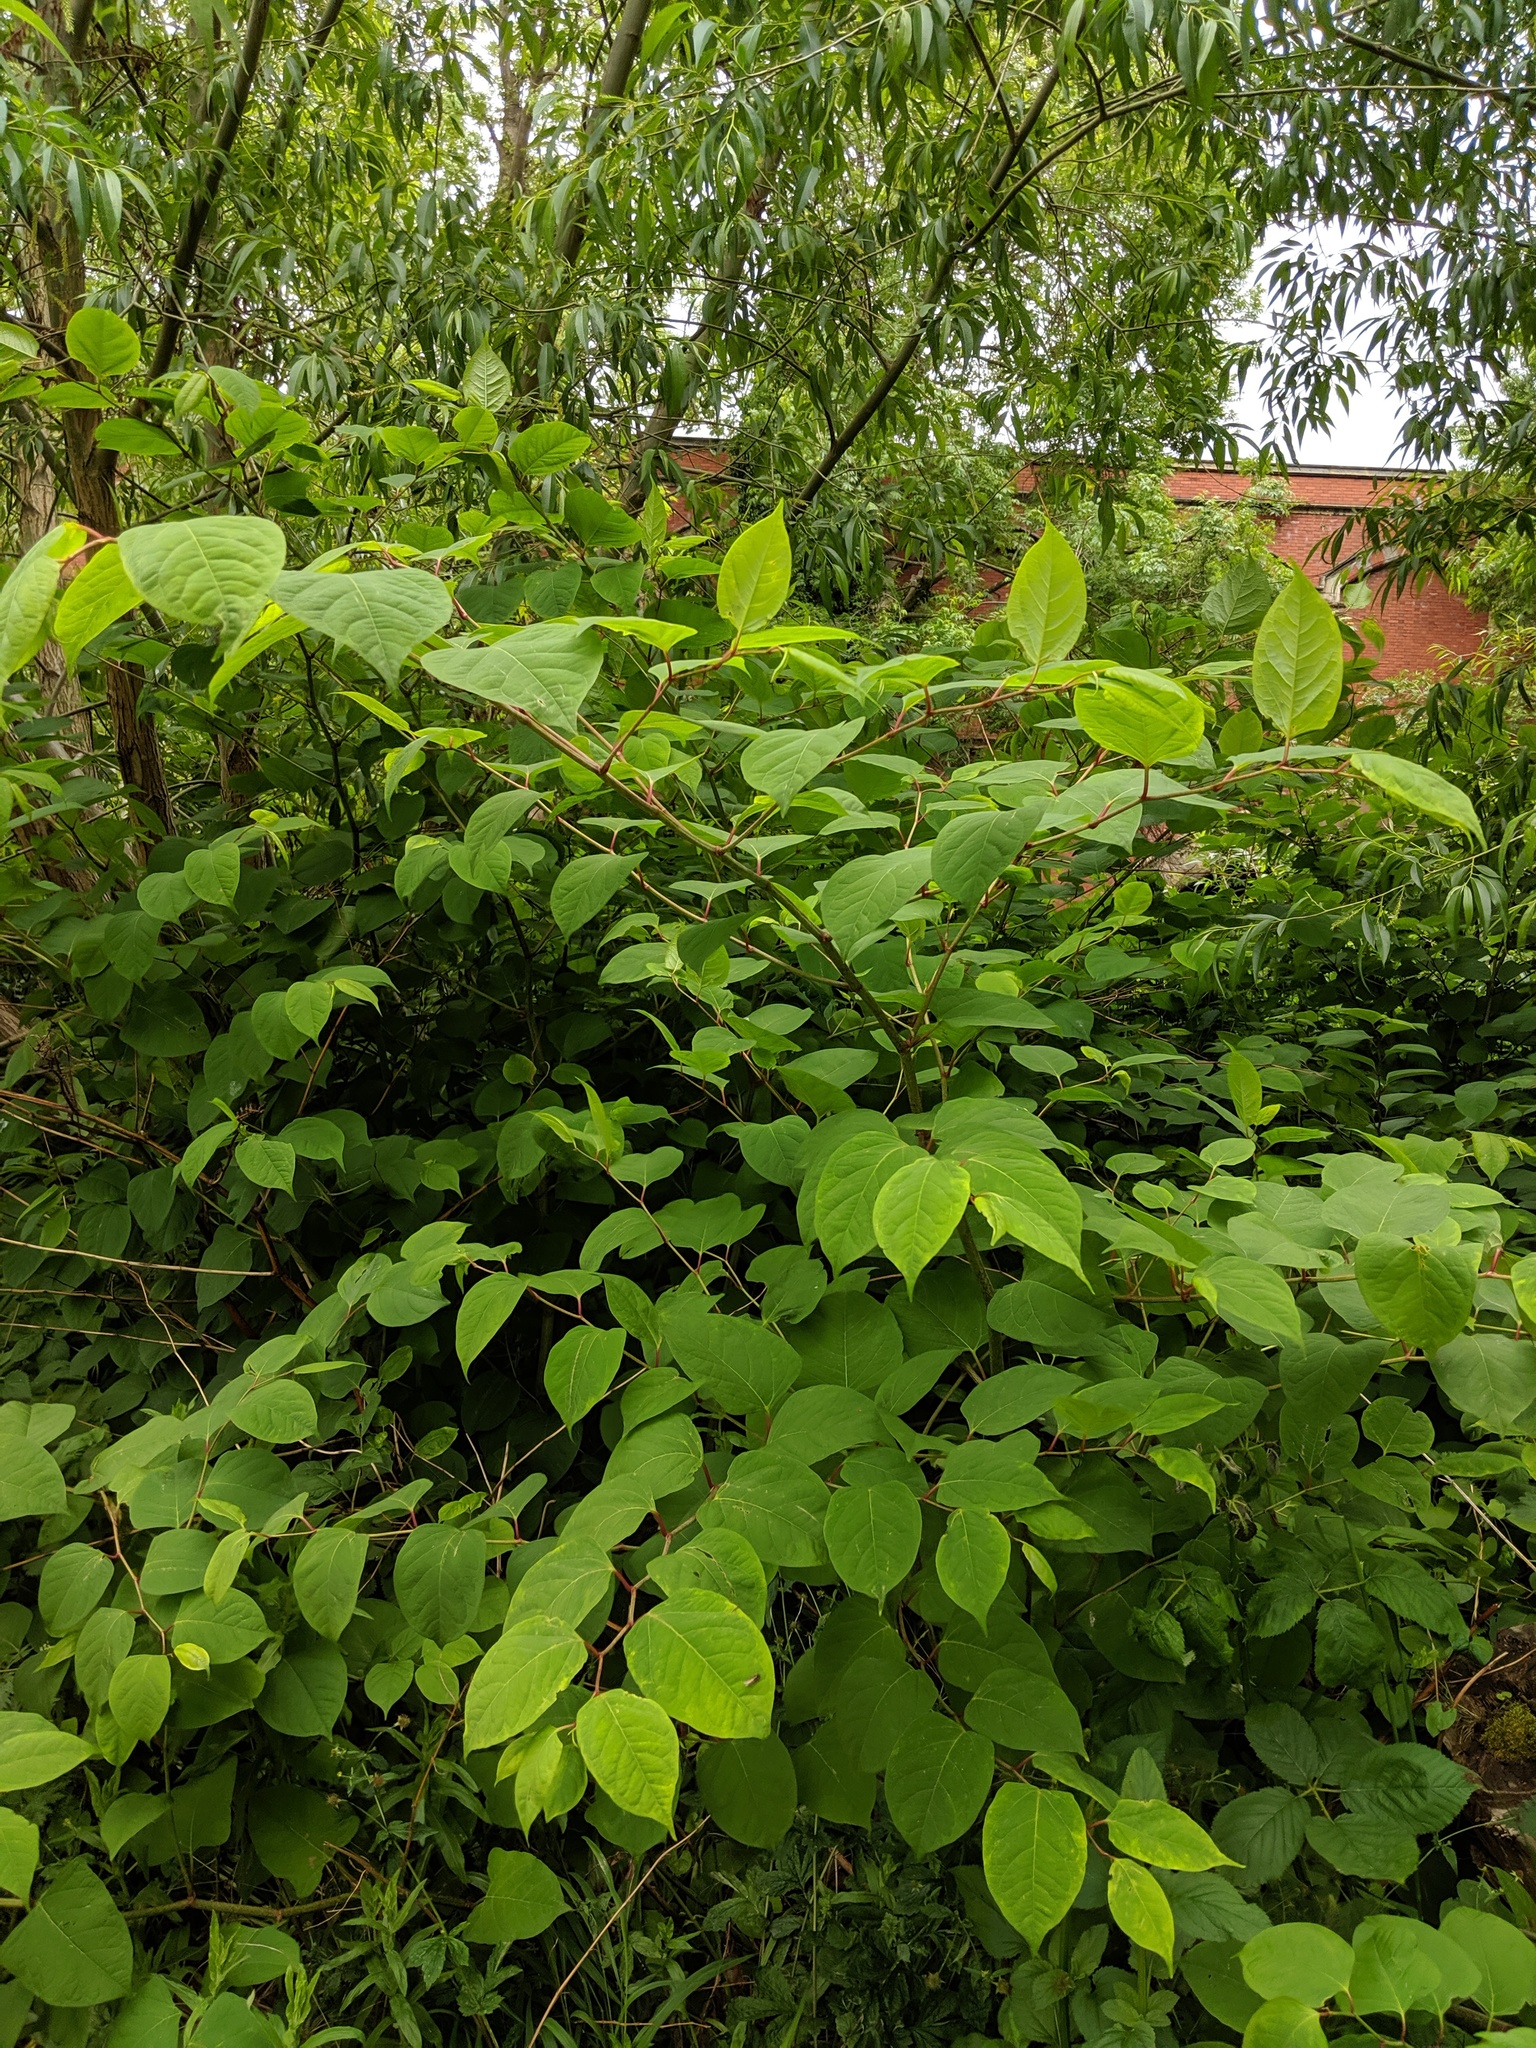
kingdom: Plantae
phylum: Tracheophyta
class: Magnoliopsida
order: Caryophyllales
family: Polygonaceae
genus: Reynoutria
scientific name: Reynoutria japonica
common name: Japanese knotweed
